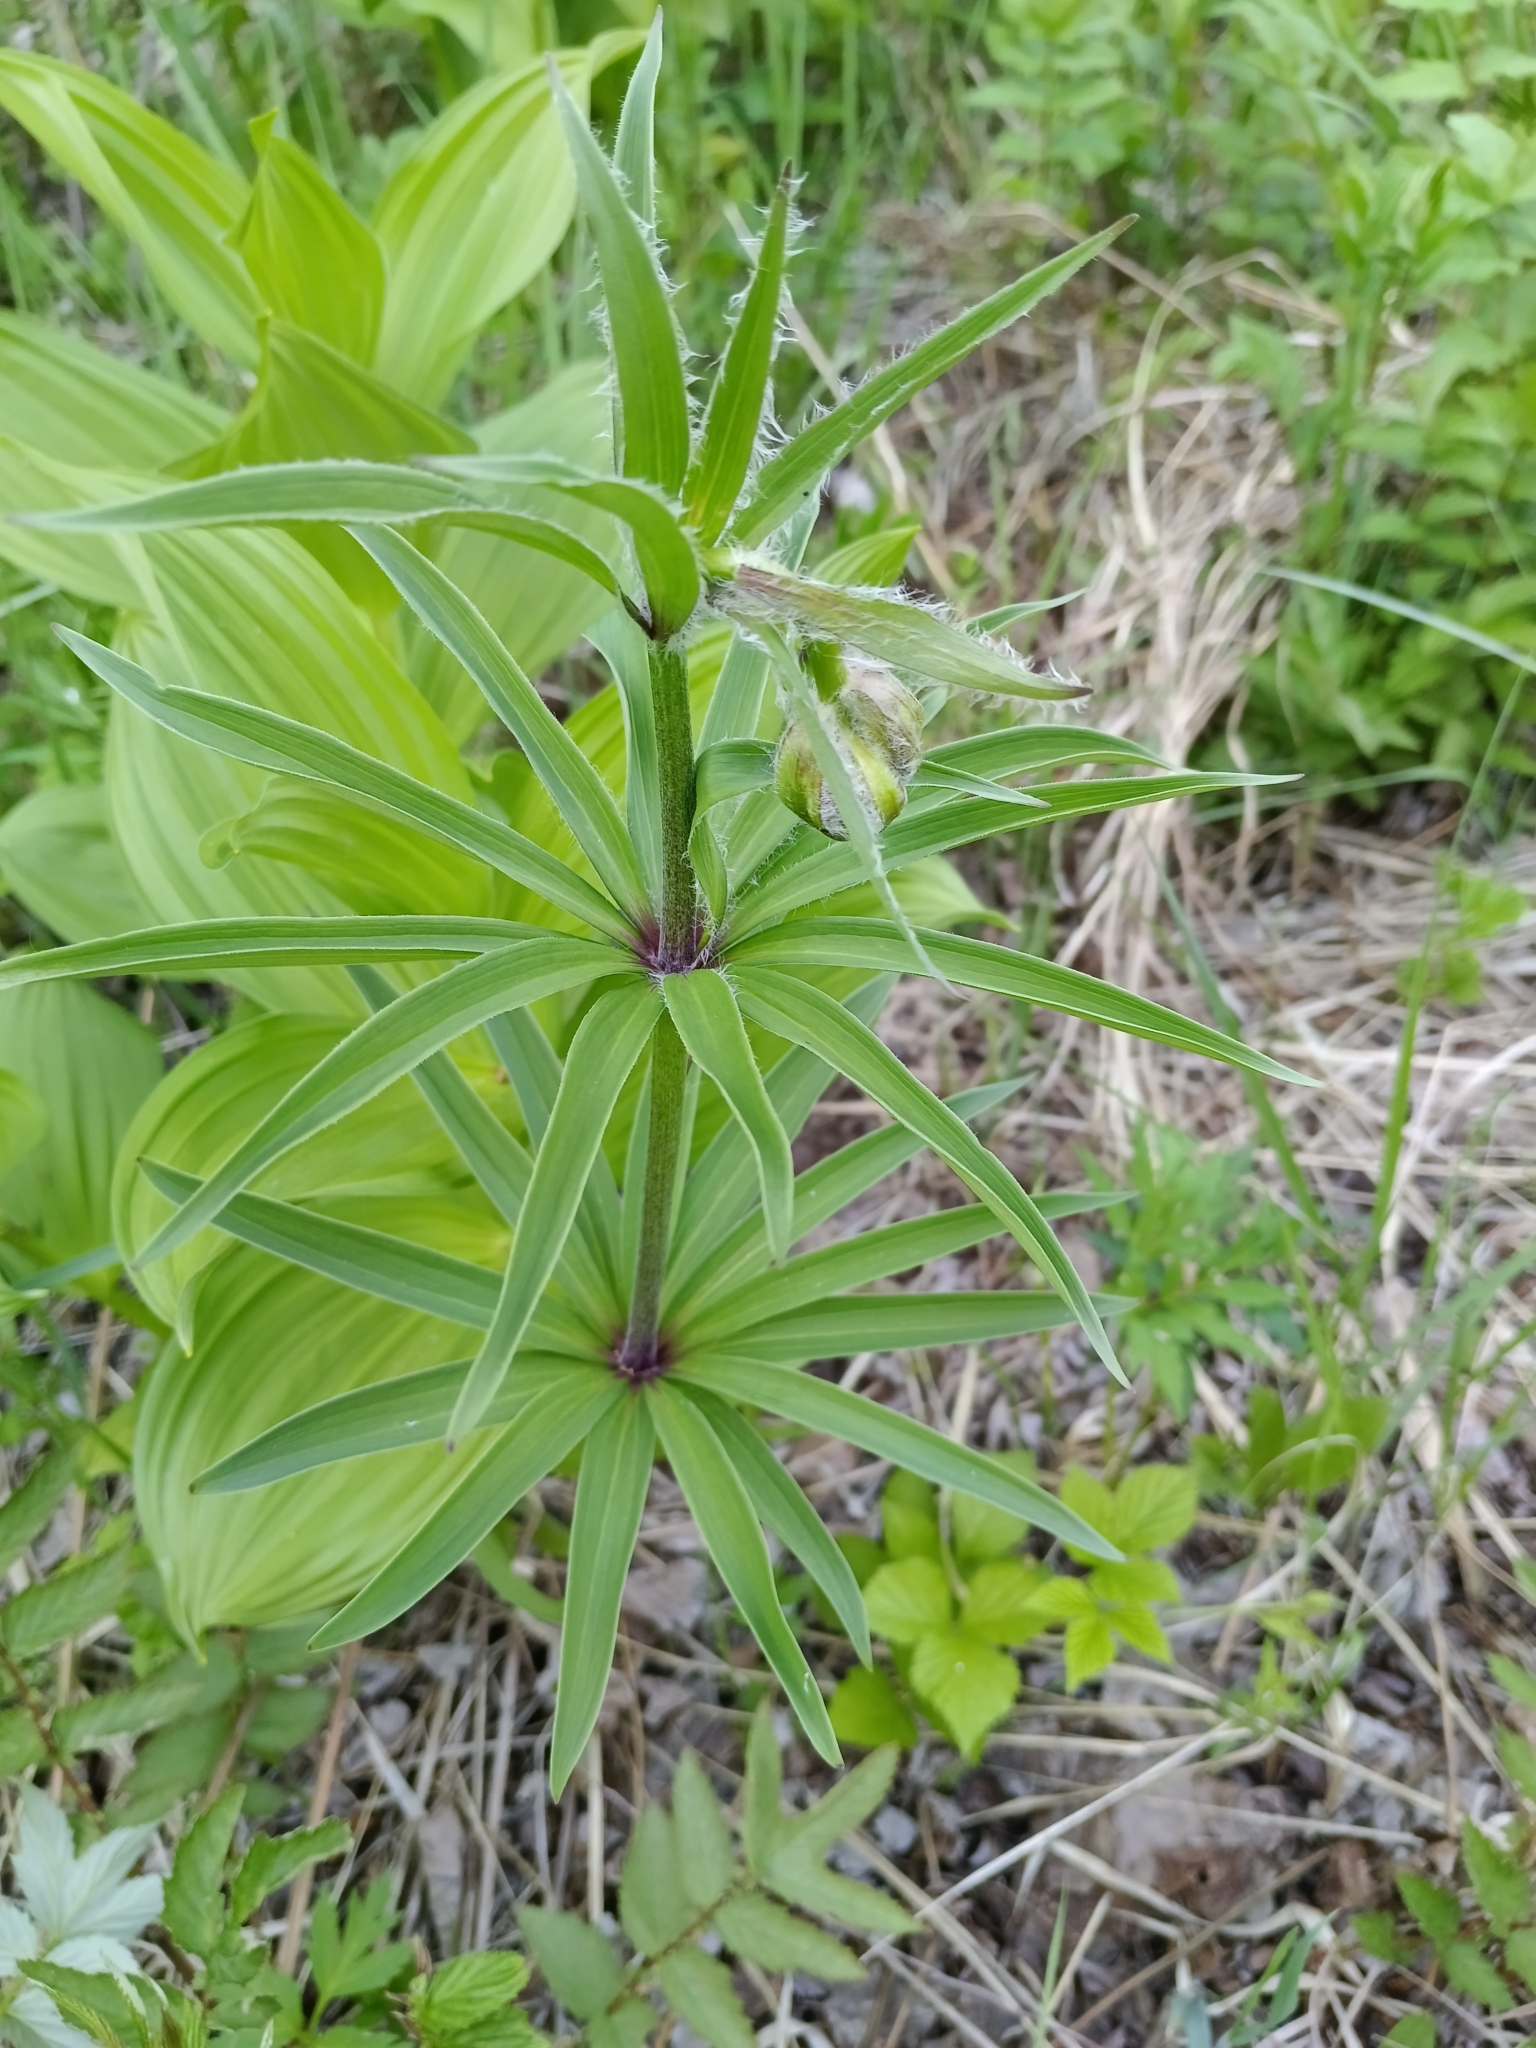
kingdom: Plantae
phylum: Tracheophyta
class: Liliopsida
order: Liliales
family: Liliaceae
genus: Lilium
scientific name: Lilium martagon
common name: Martagon lily
